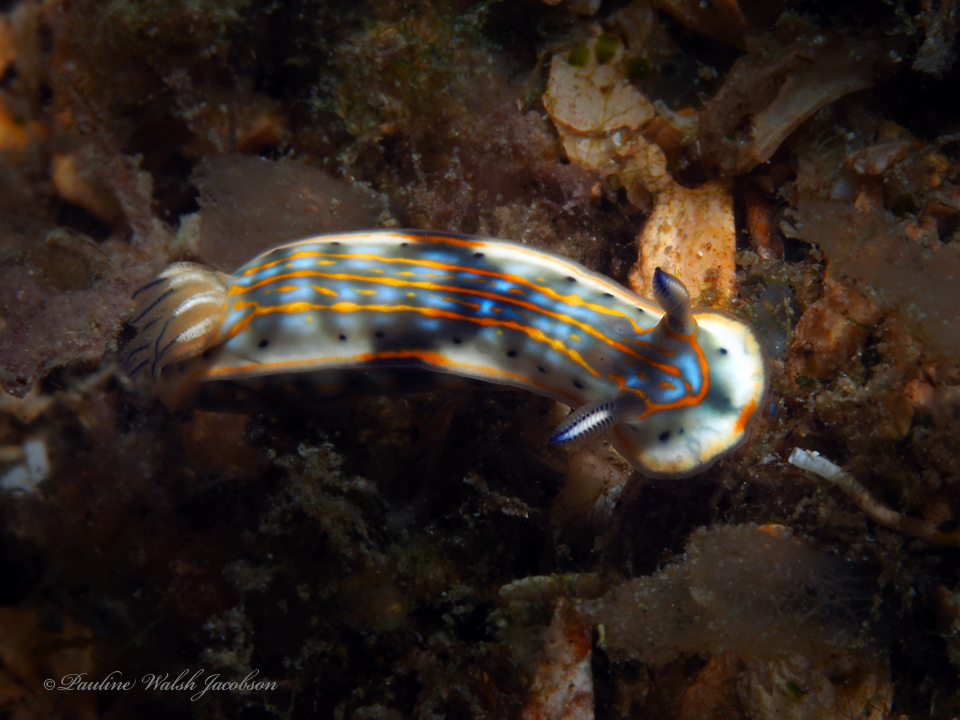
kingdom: Animalia
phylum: Mollusca
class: Gastropoda
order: Nudibranchia
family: Chromodorididae
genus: Felimare
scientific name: Felimare fregona
